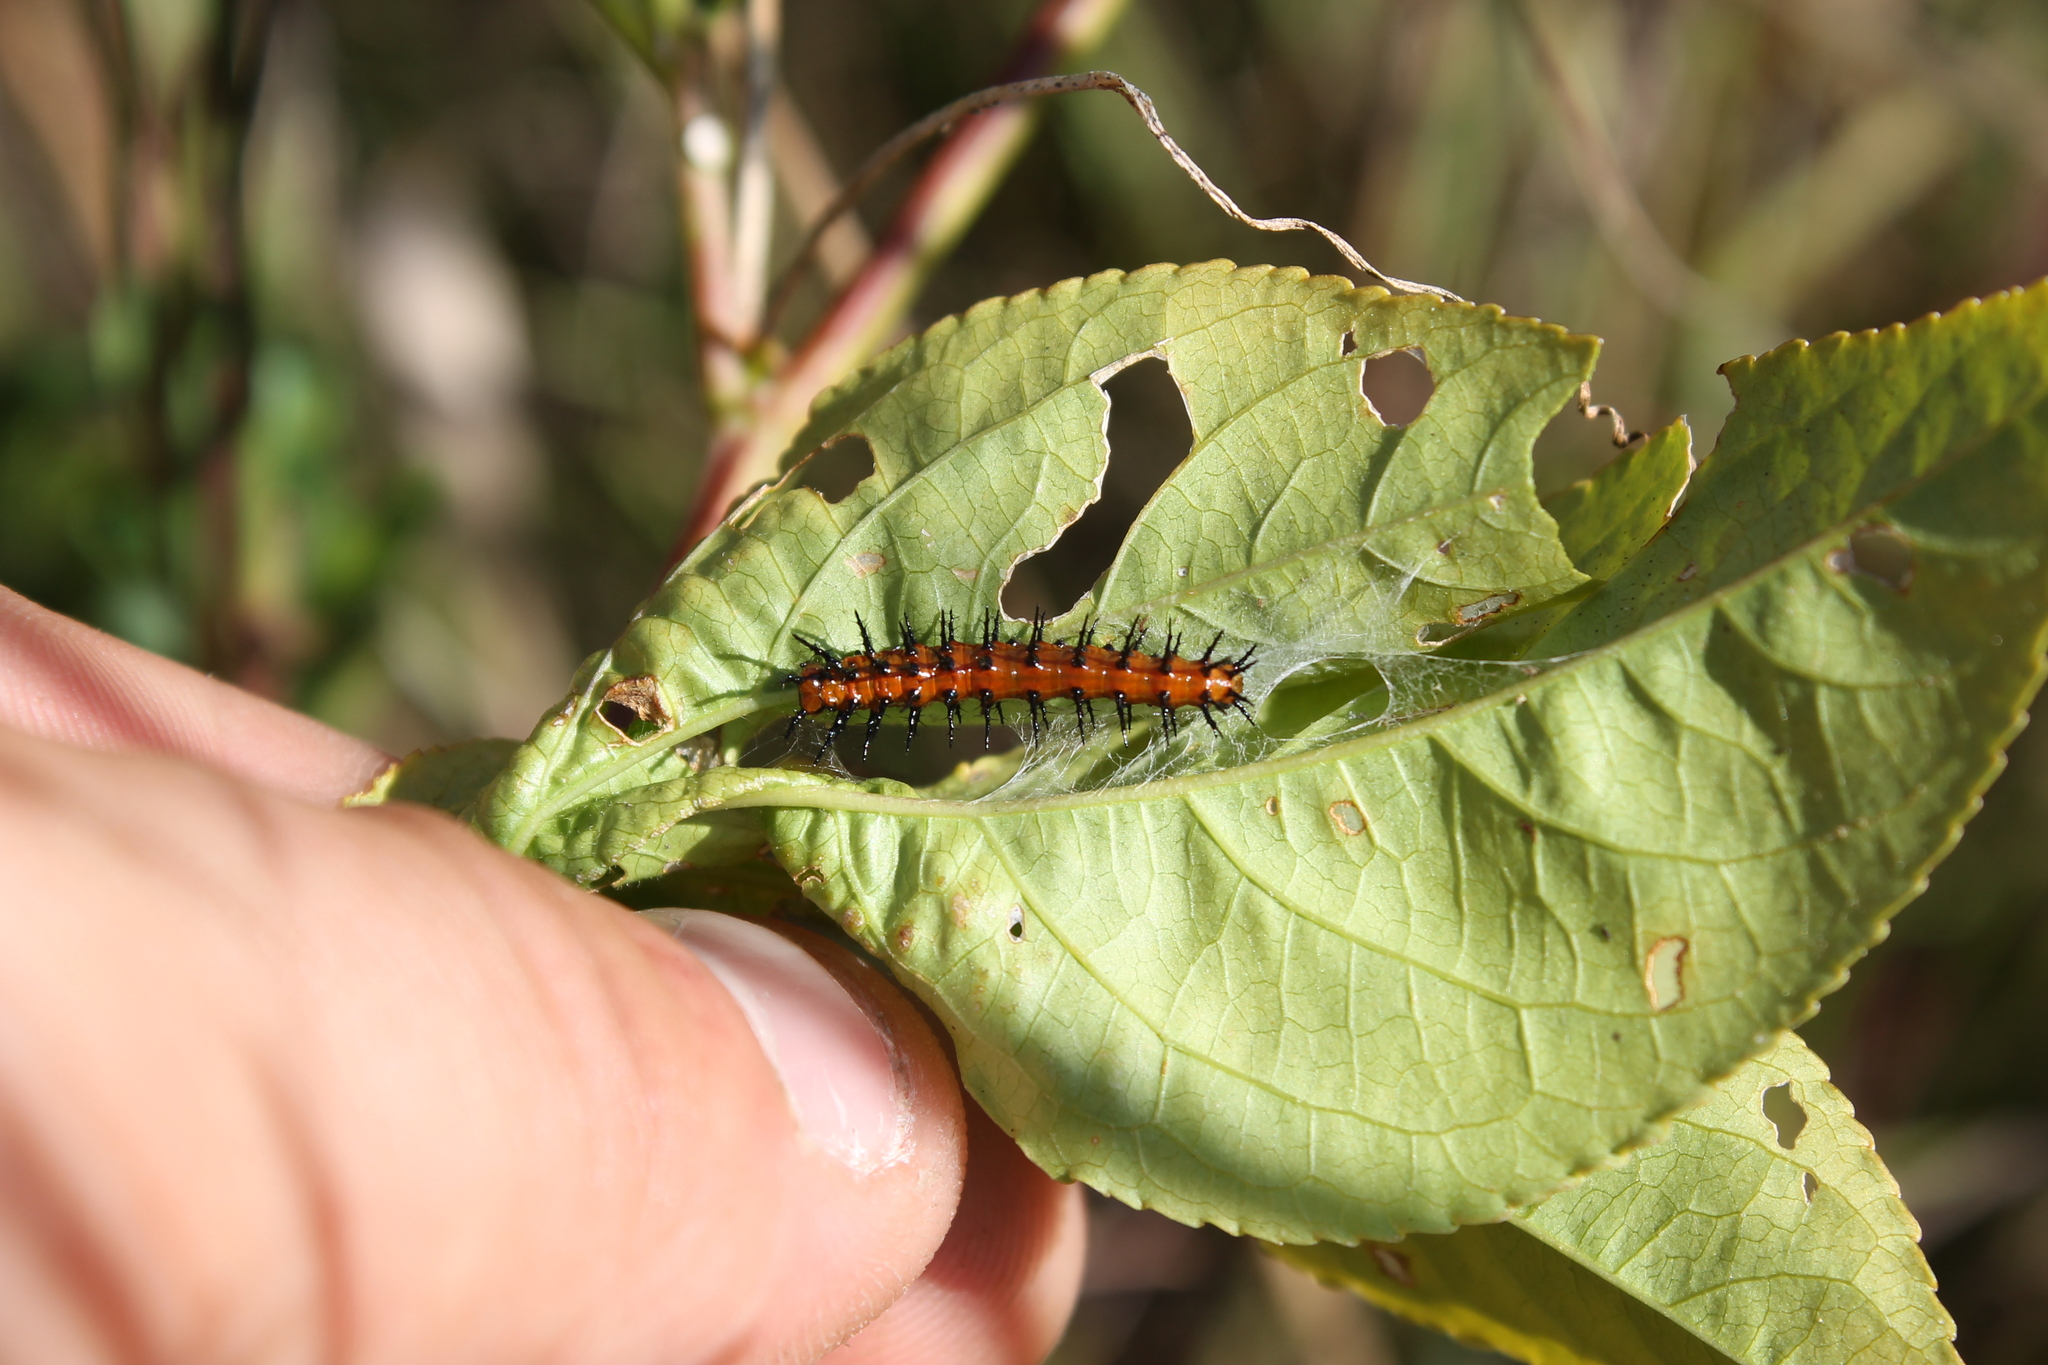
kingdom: Animalia
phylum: Arthropoda
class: Insecta
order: Lepidoptera
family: Nymphalidae
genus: Dione
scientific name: Dione vanillae
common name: Gulf fritillary
